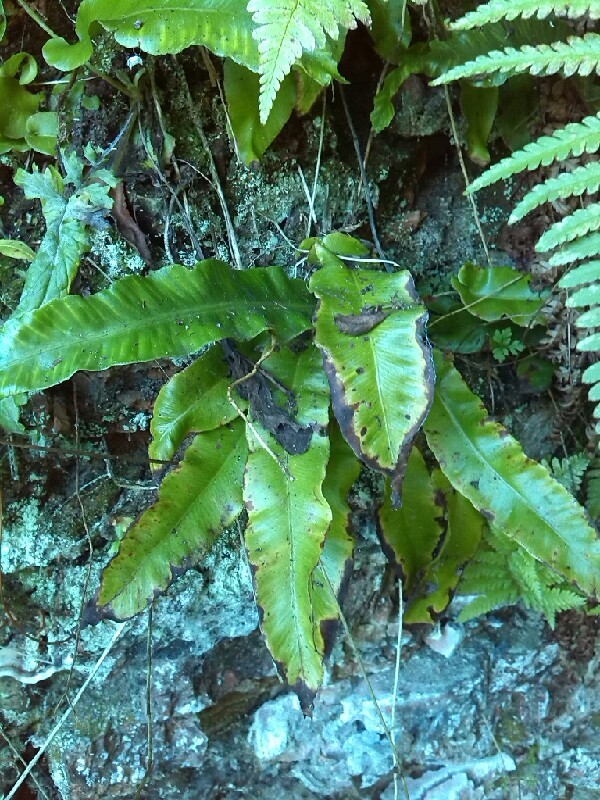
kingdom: Plantae
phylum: Tracheophyta
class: Polypodiopsida
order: Polypodiales
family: Aspleniaceae
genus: Asplenium
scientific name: Asplenium scolopendrium
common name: Hart's-tongue fern
